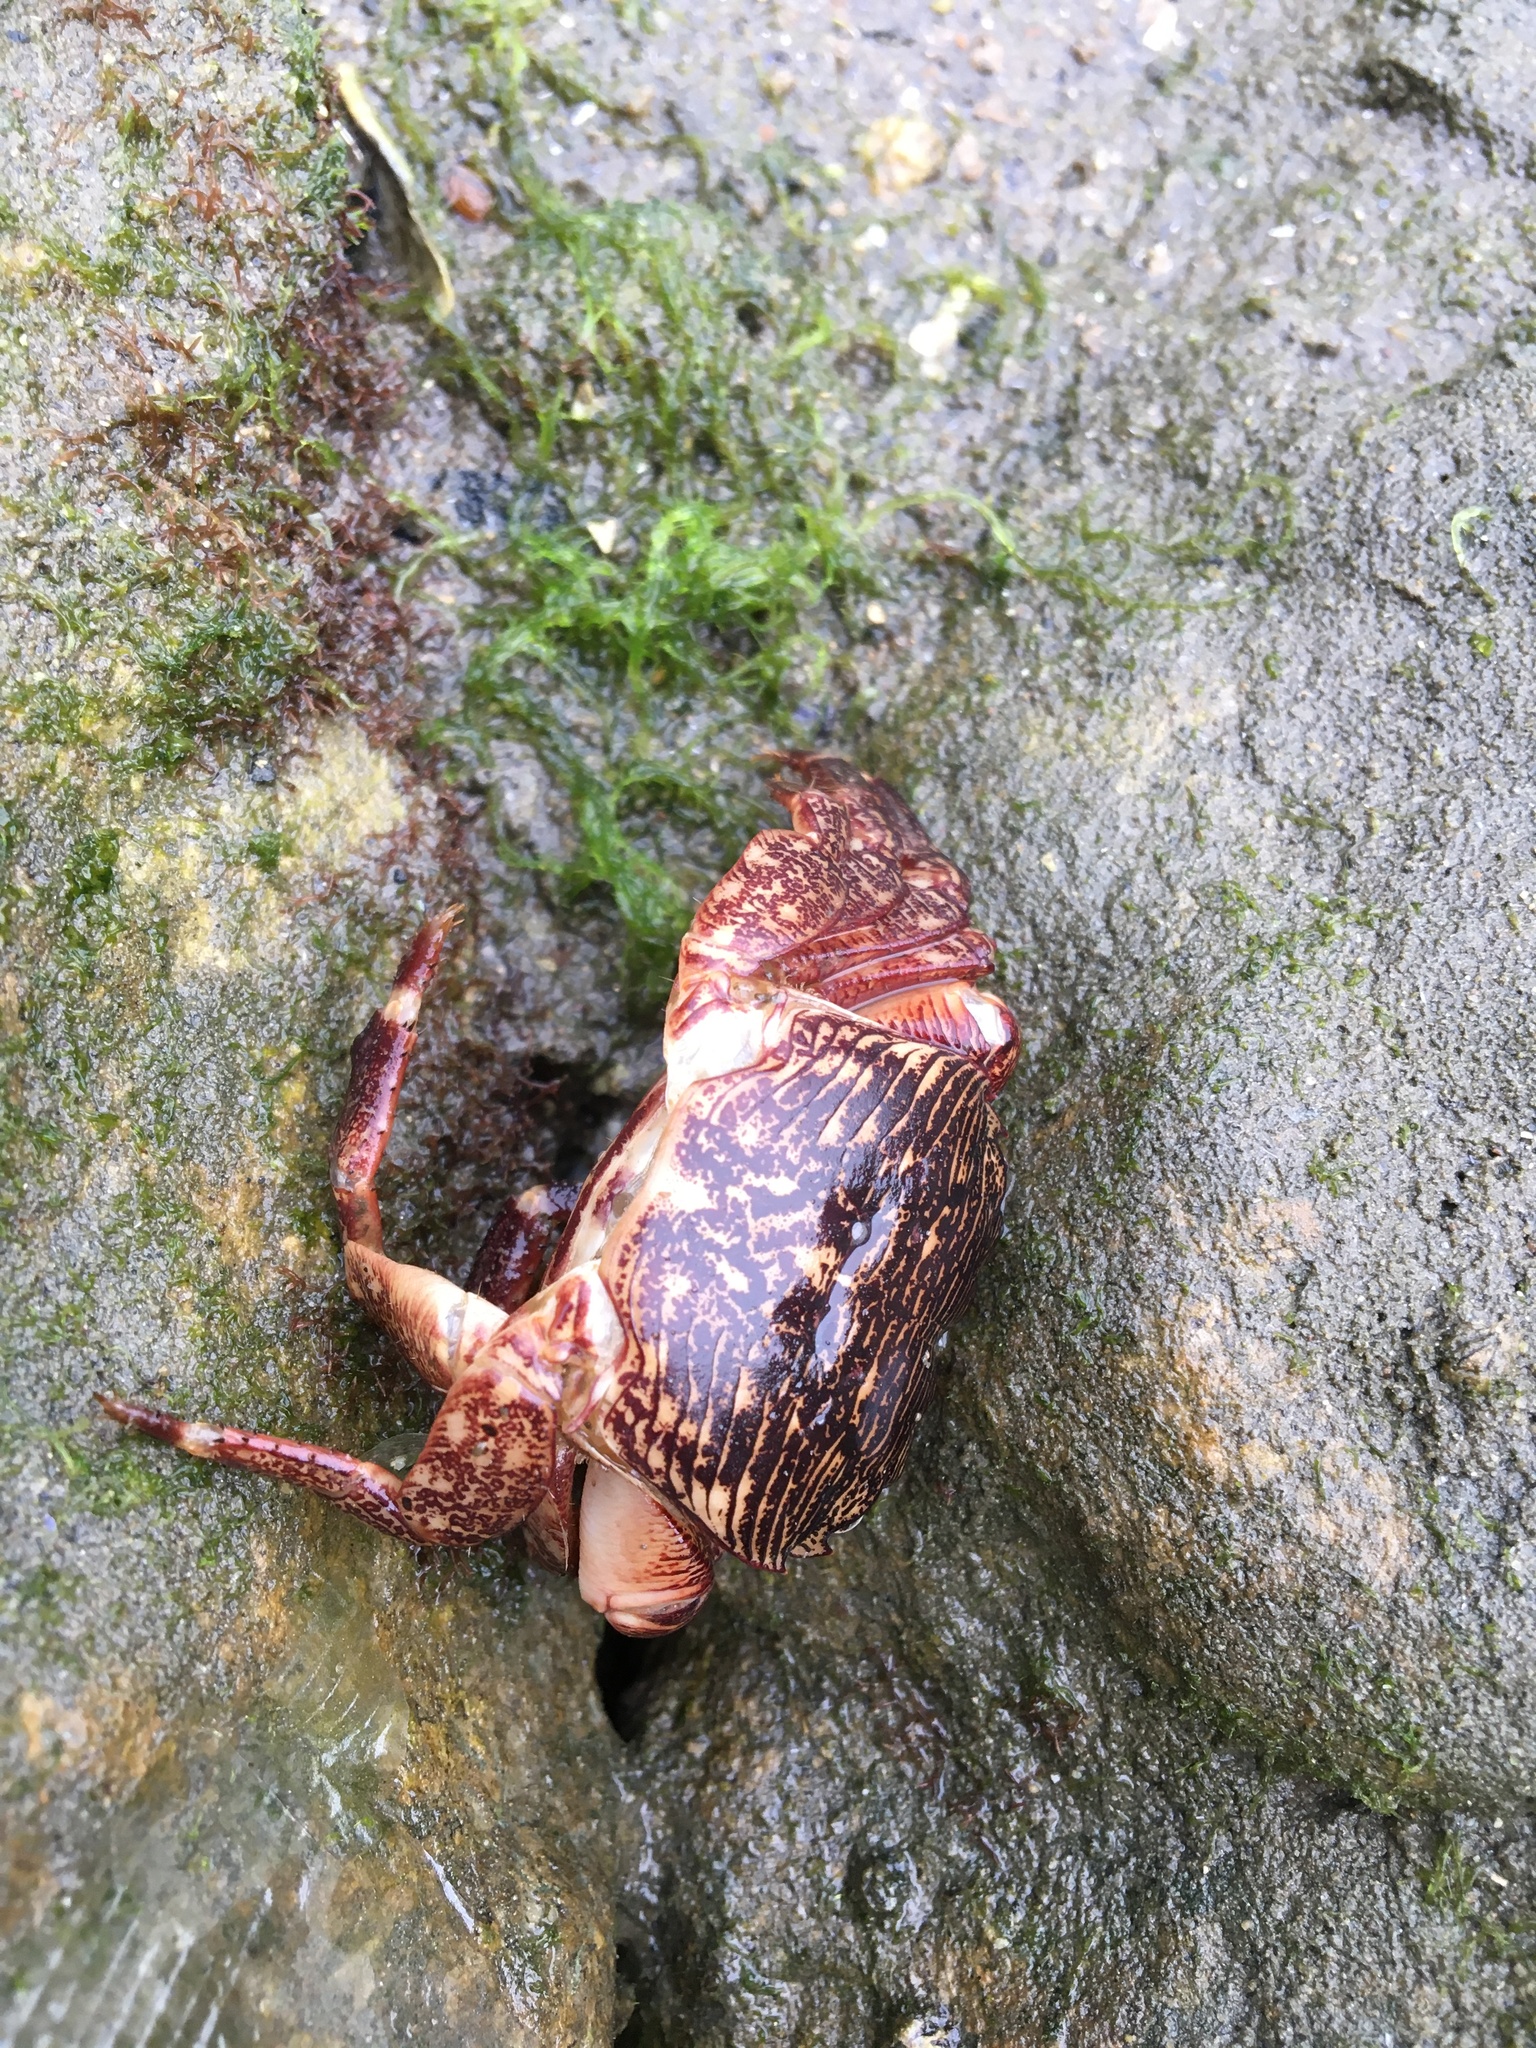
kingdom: Animalia
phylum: Arthropoda
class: Malacostraca
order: Decapoda
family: Grapsidae
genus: Pachygrapsus
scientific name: Pachygrapsus crassipes
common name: Striped shore crab
